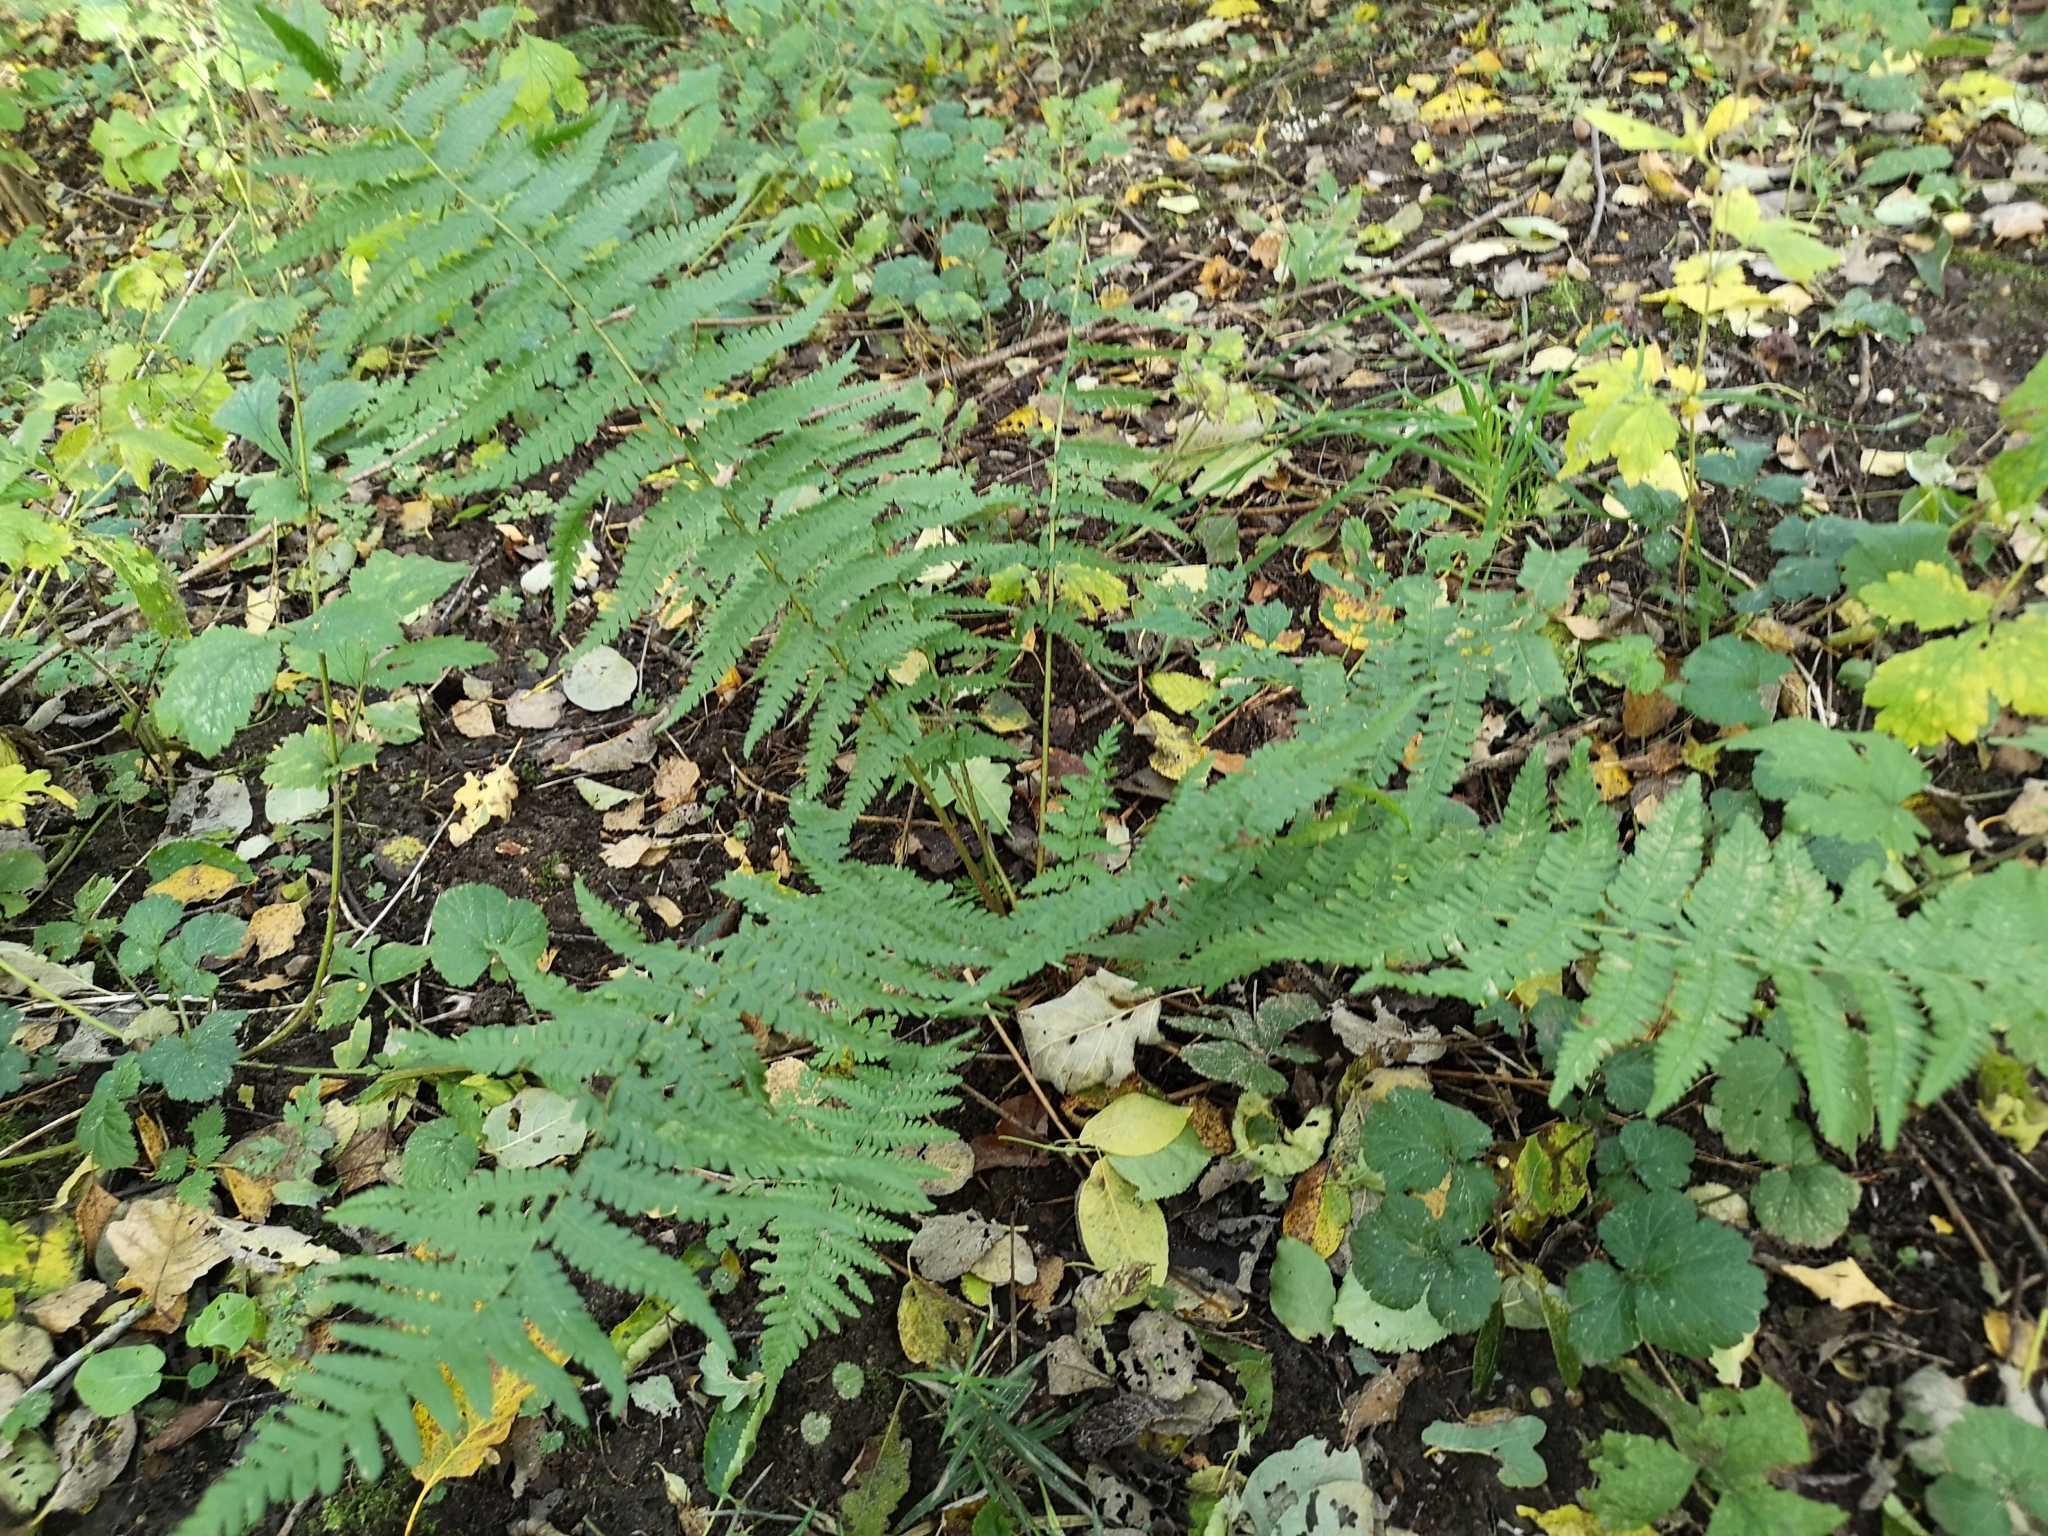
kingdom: Plantae
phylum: Tracheophyta
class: Polypodiopsida
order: Polypodiales
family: Dryopteridaceae
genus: Dryopteris
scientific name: Dryopteris filix-mas
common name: Male fern
